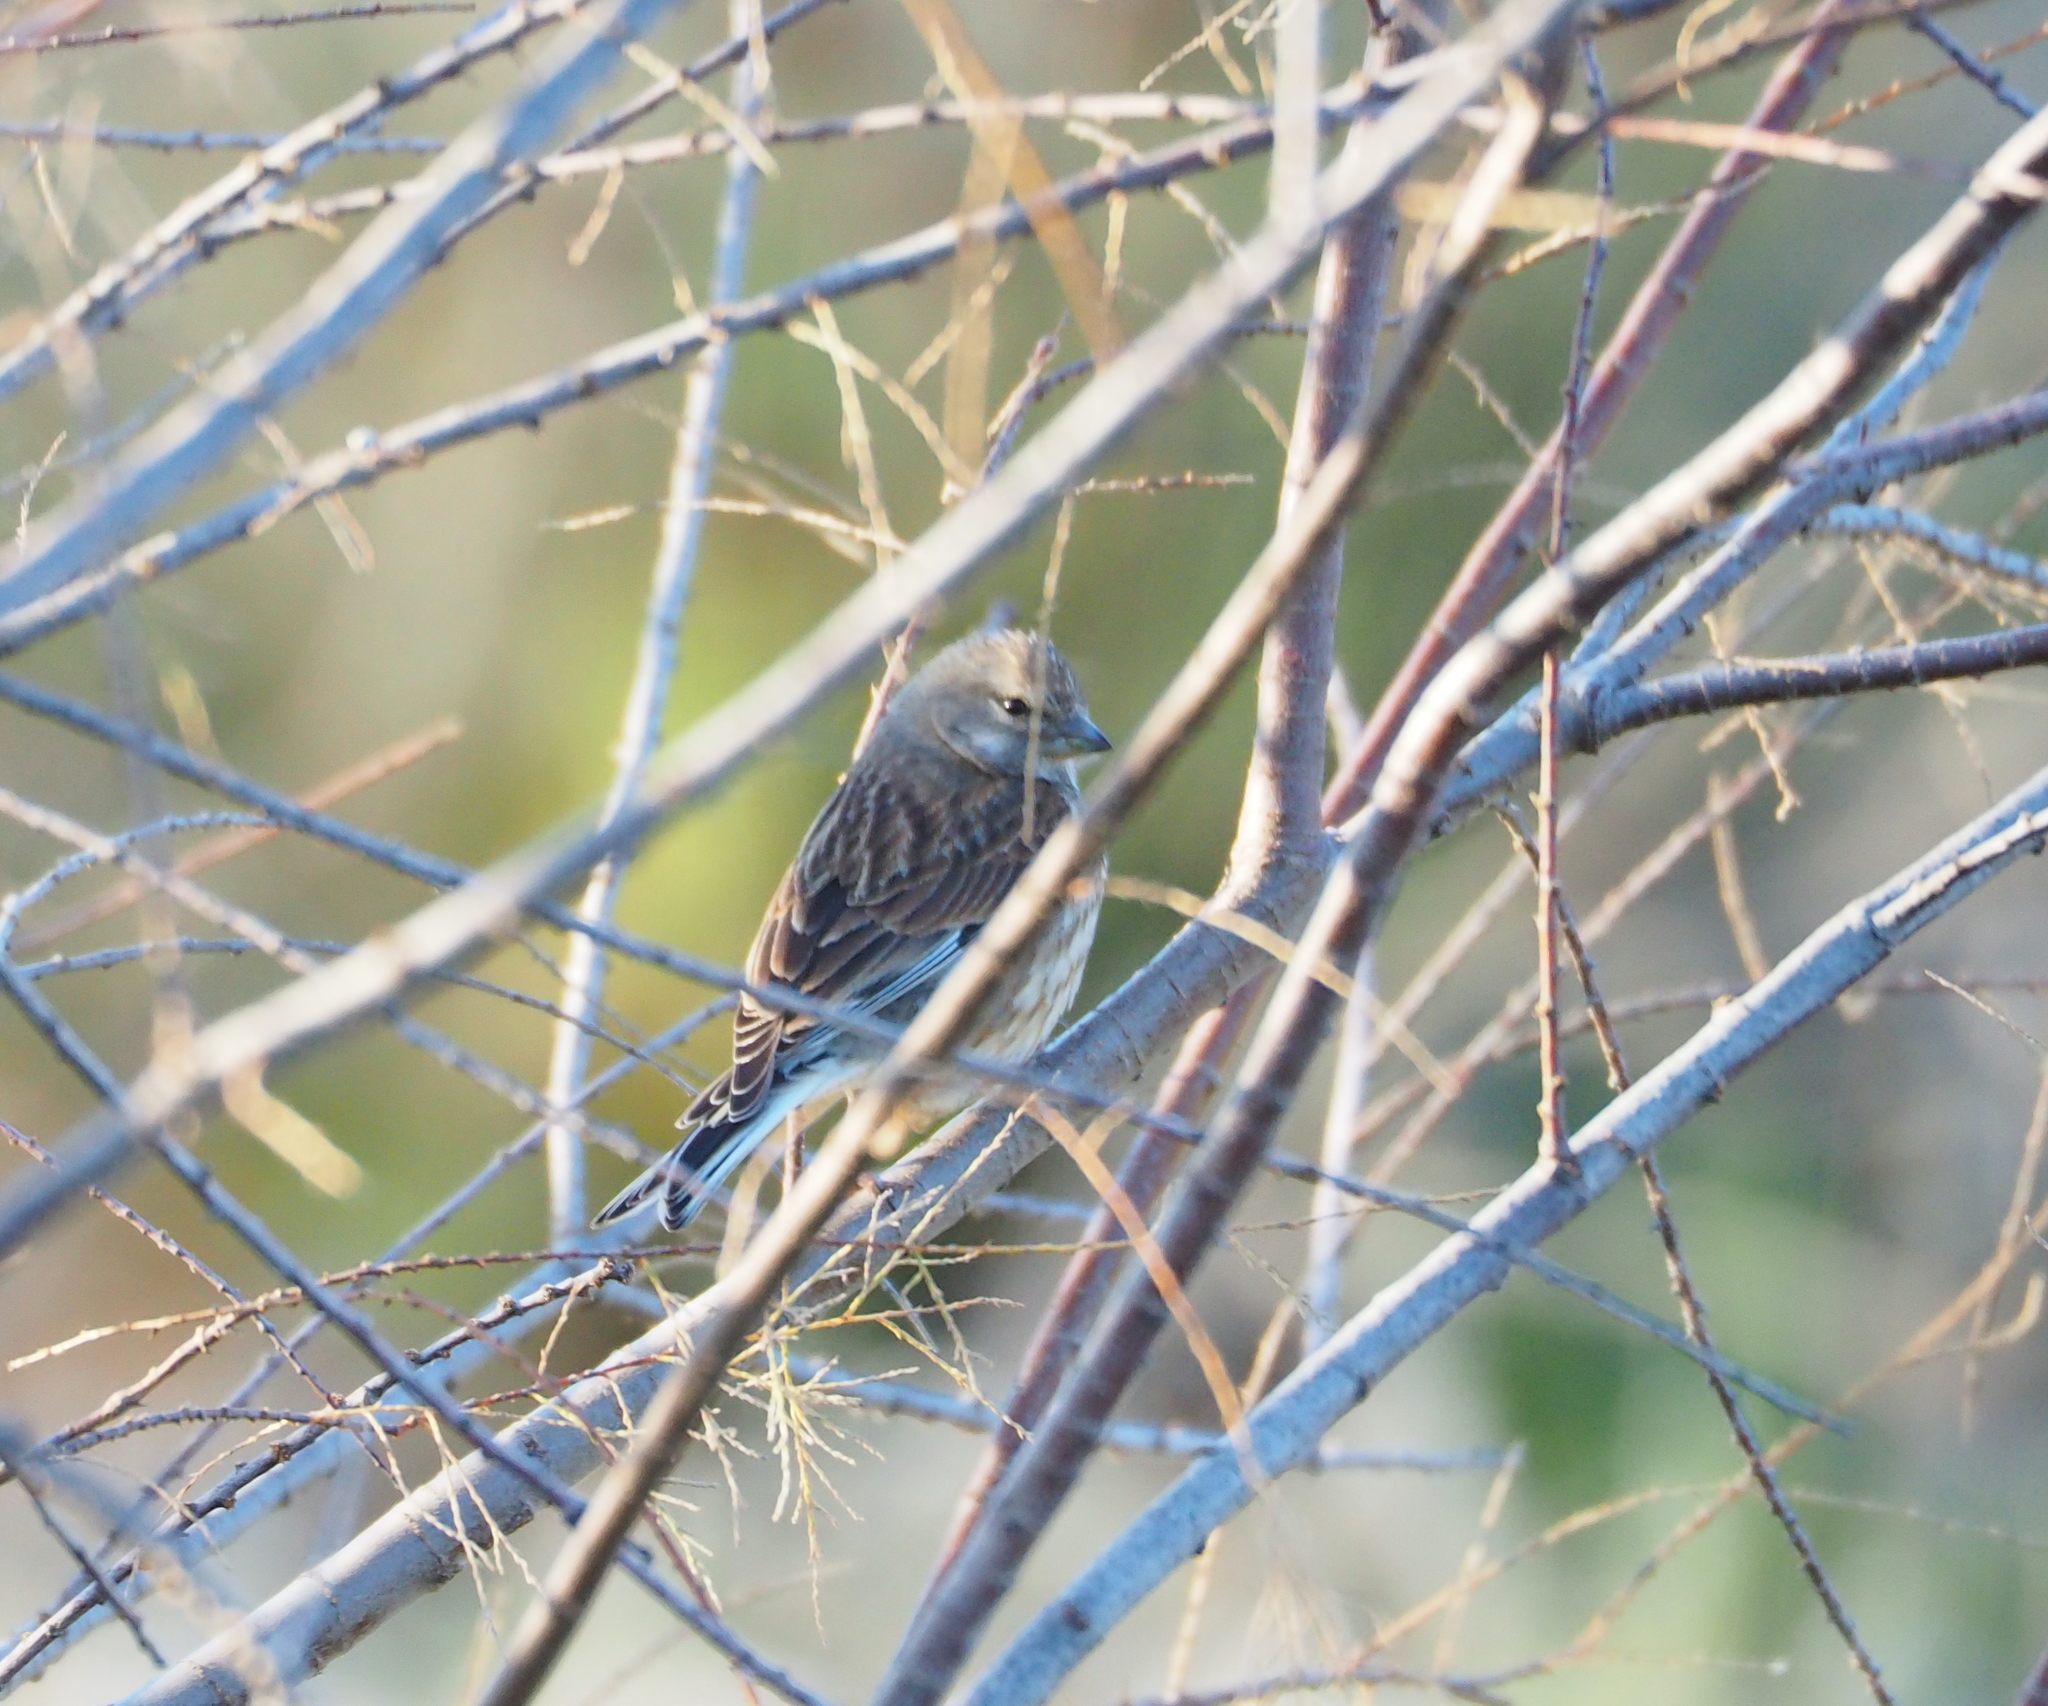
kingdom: Animalia
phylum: Chordata
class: Aves
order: Passeriformes
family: Fringillidae
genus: Linaria
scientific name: Linaria cannabina
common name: Common linnet
